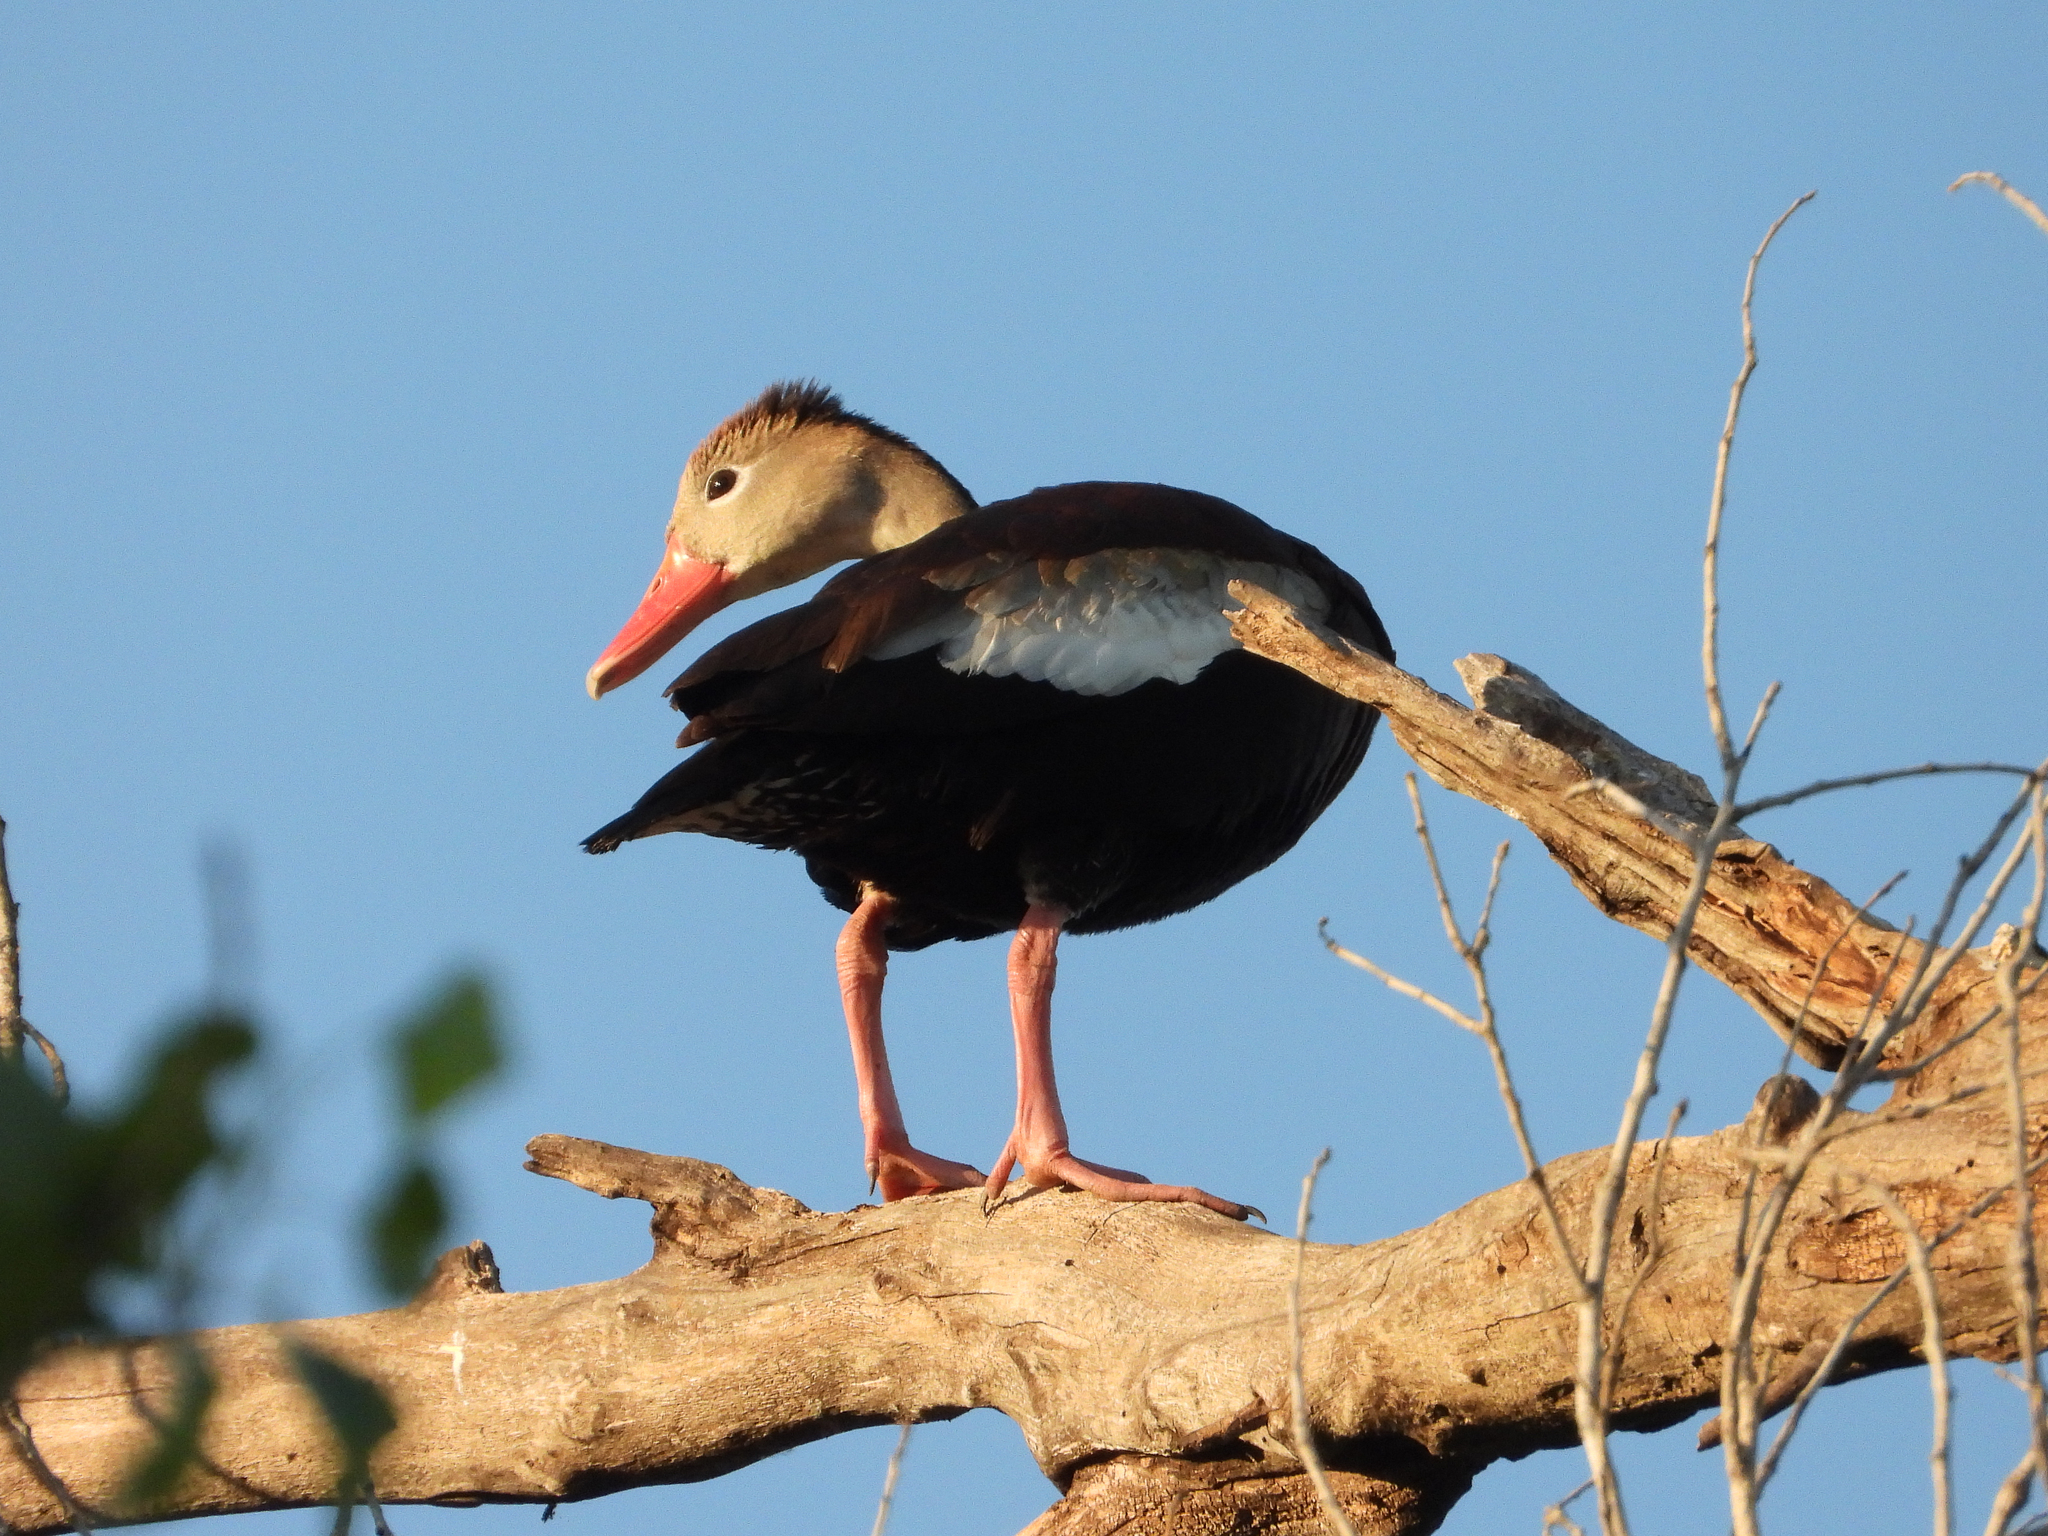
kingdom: Animalia
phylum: Chordata
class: Aves
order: Anseriformes
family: Anatidae
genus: Dendrocygna
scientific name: Dendrocygna autumnalis
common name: Black-bellied whistling duck
